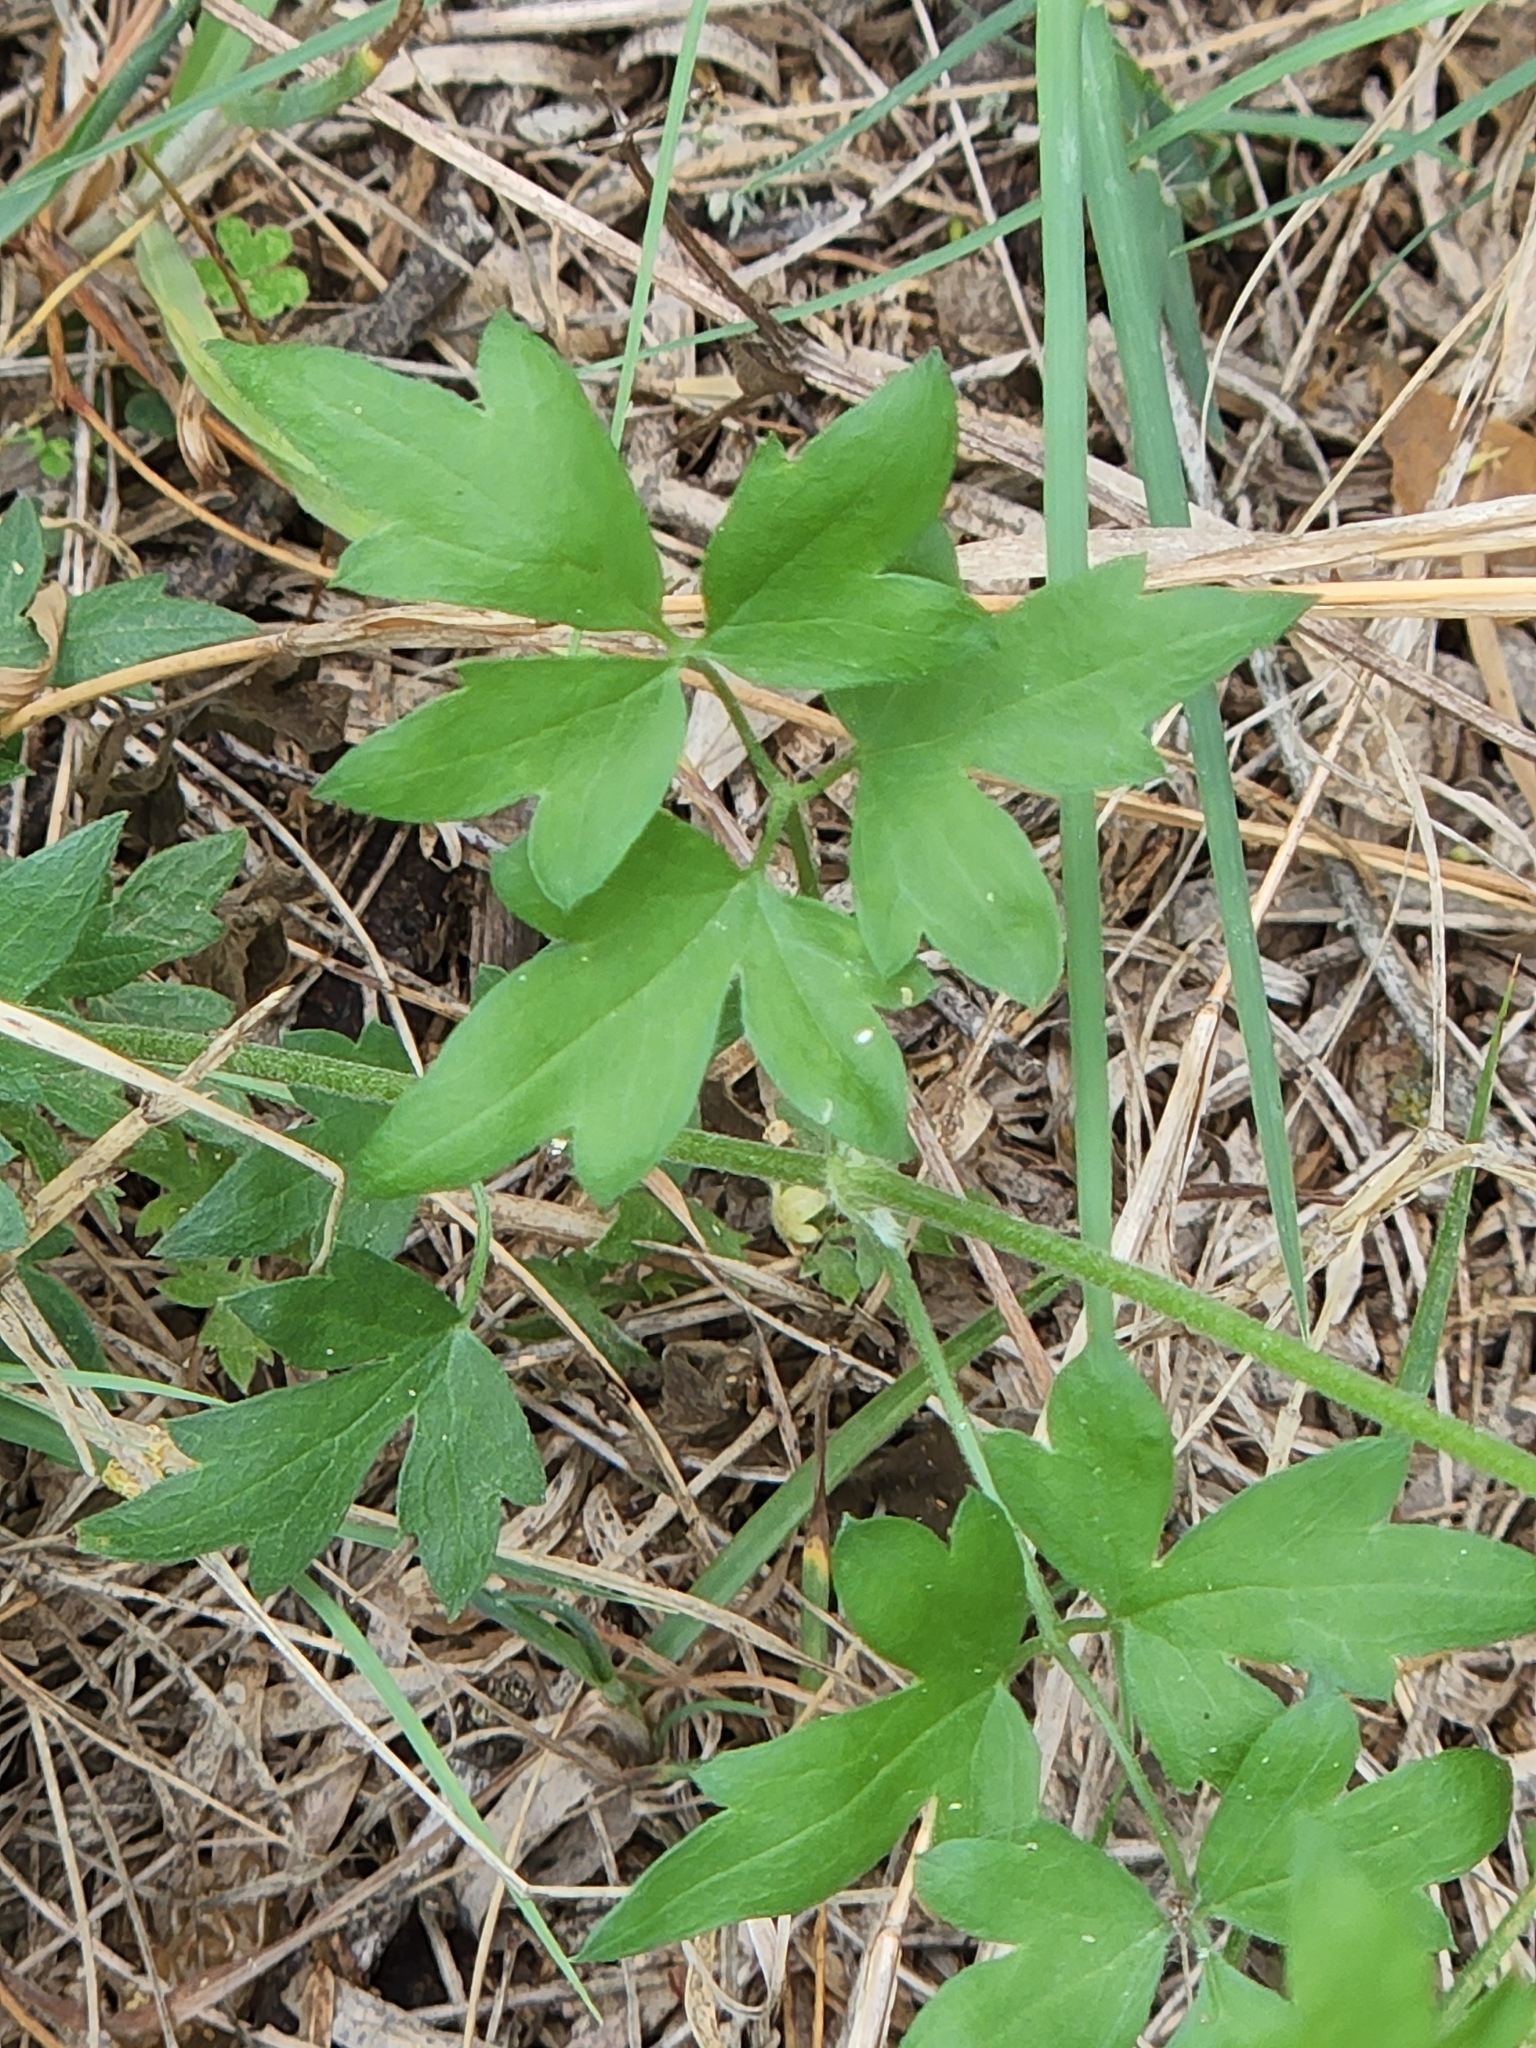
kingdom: Plantae
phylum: Tracheophyta
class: Magnoliopsida
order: Ranunculales
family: Ranunculaceae
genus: Clematis
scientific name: Clematis drummondii
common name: Texas virgin's bower
